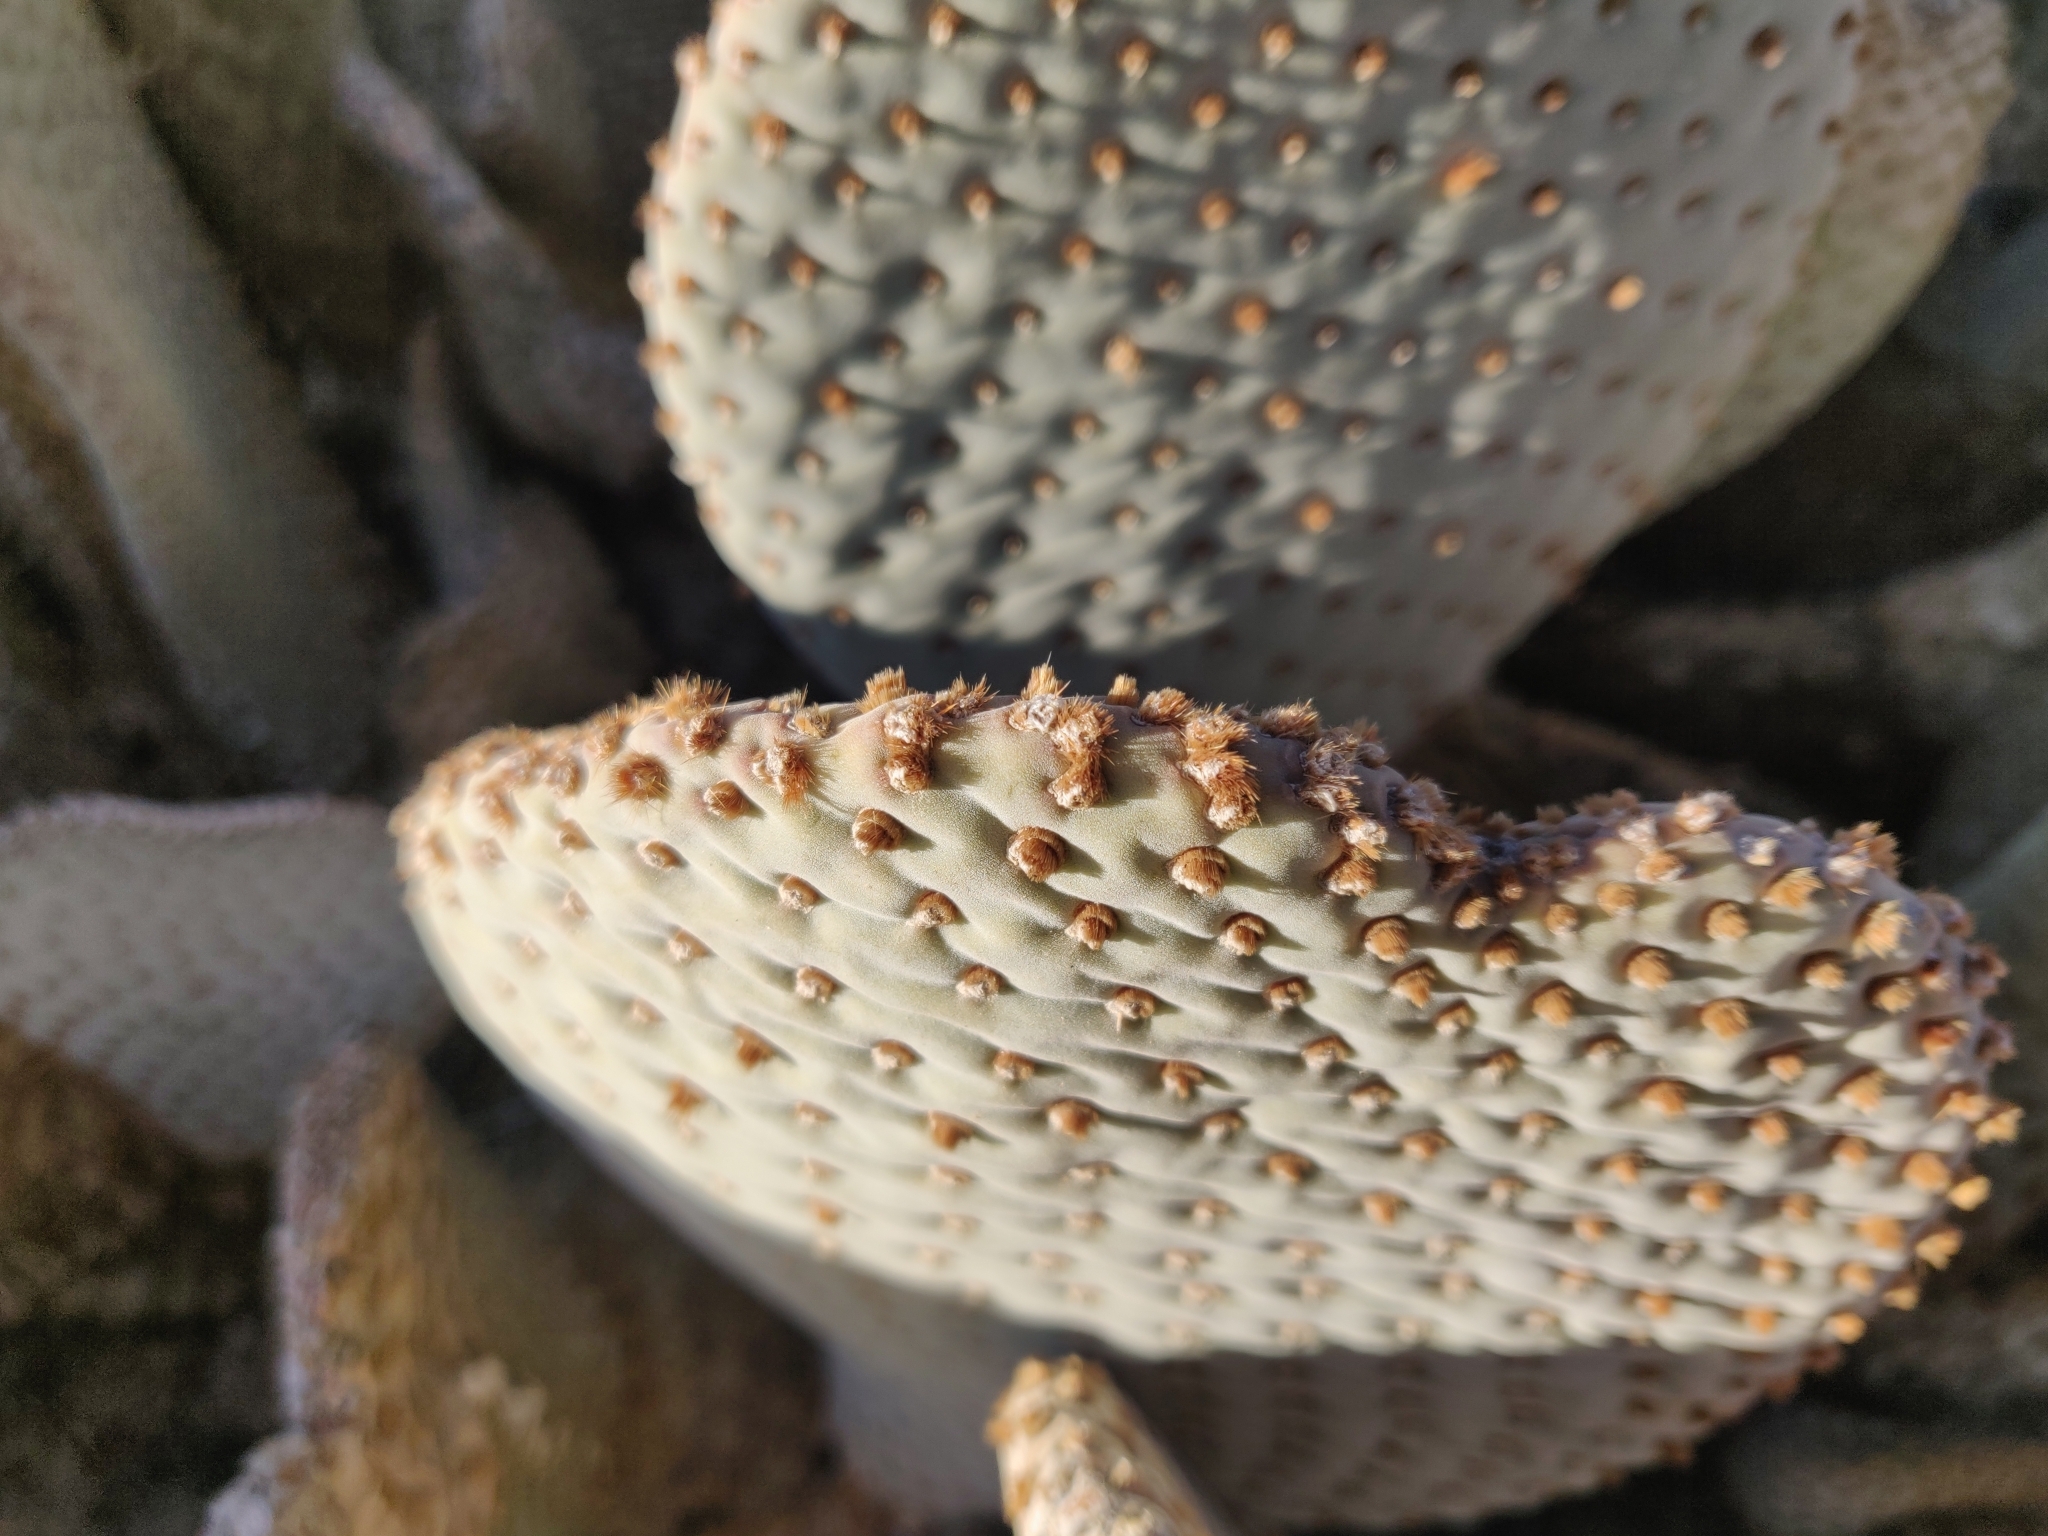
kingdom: Plantae
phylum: Tracheophyta
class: Magnoliopsida
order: Caryophyllales
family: Cactaceae
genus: Opuntia
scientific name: Opuntia basilaris
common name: Beavertail prickly-pear
